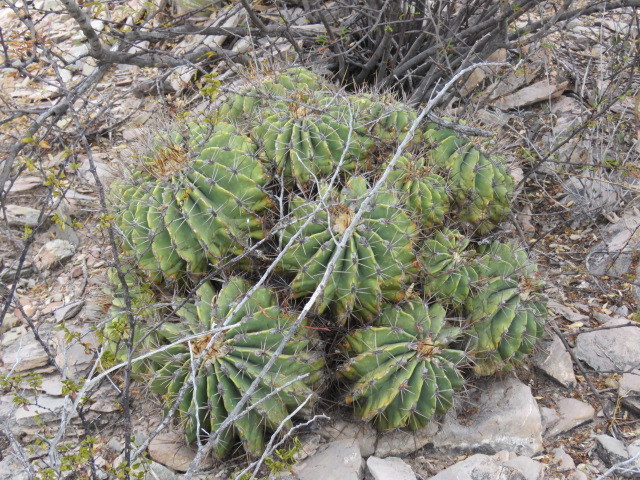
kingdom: Plantae
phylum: Tracheophyta
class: Magnoliopsida
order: Caryophyllales
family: Cactaceae
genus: Parrycactus
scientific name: Parrycactus echidne
